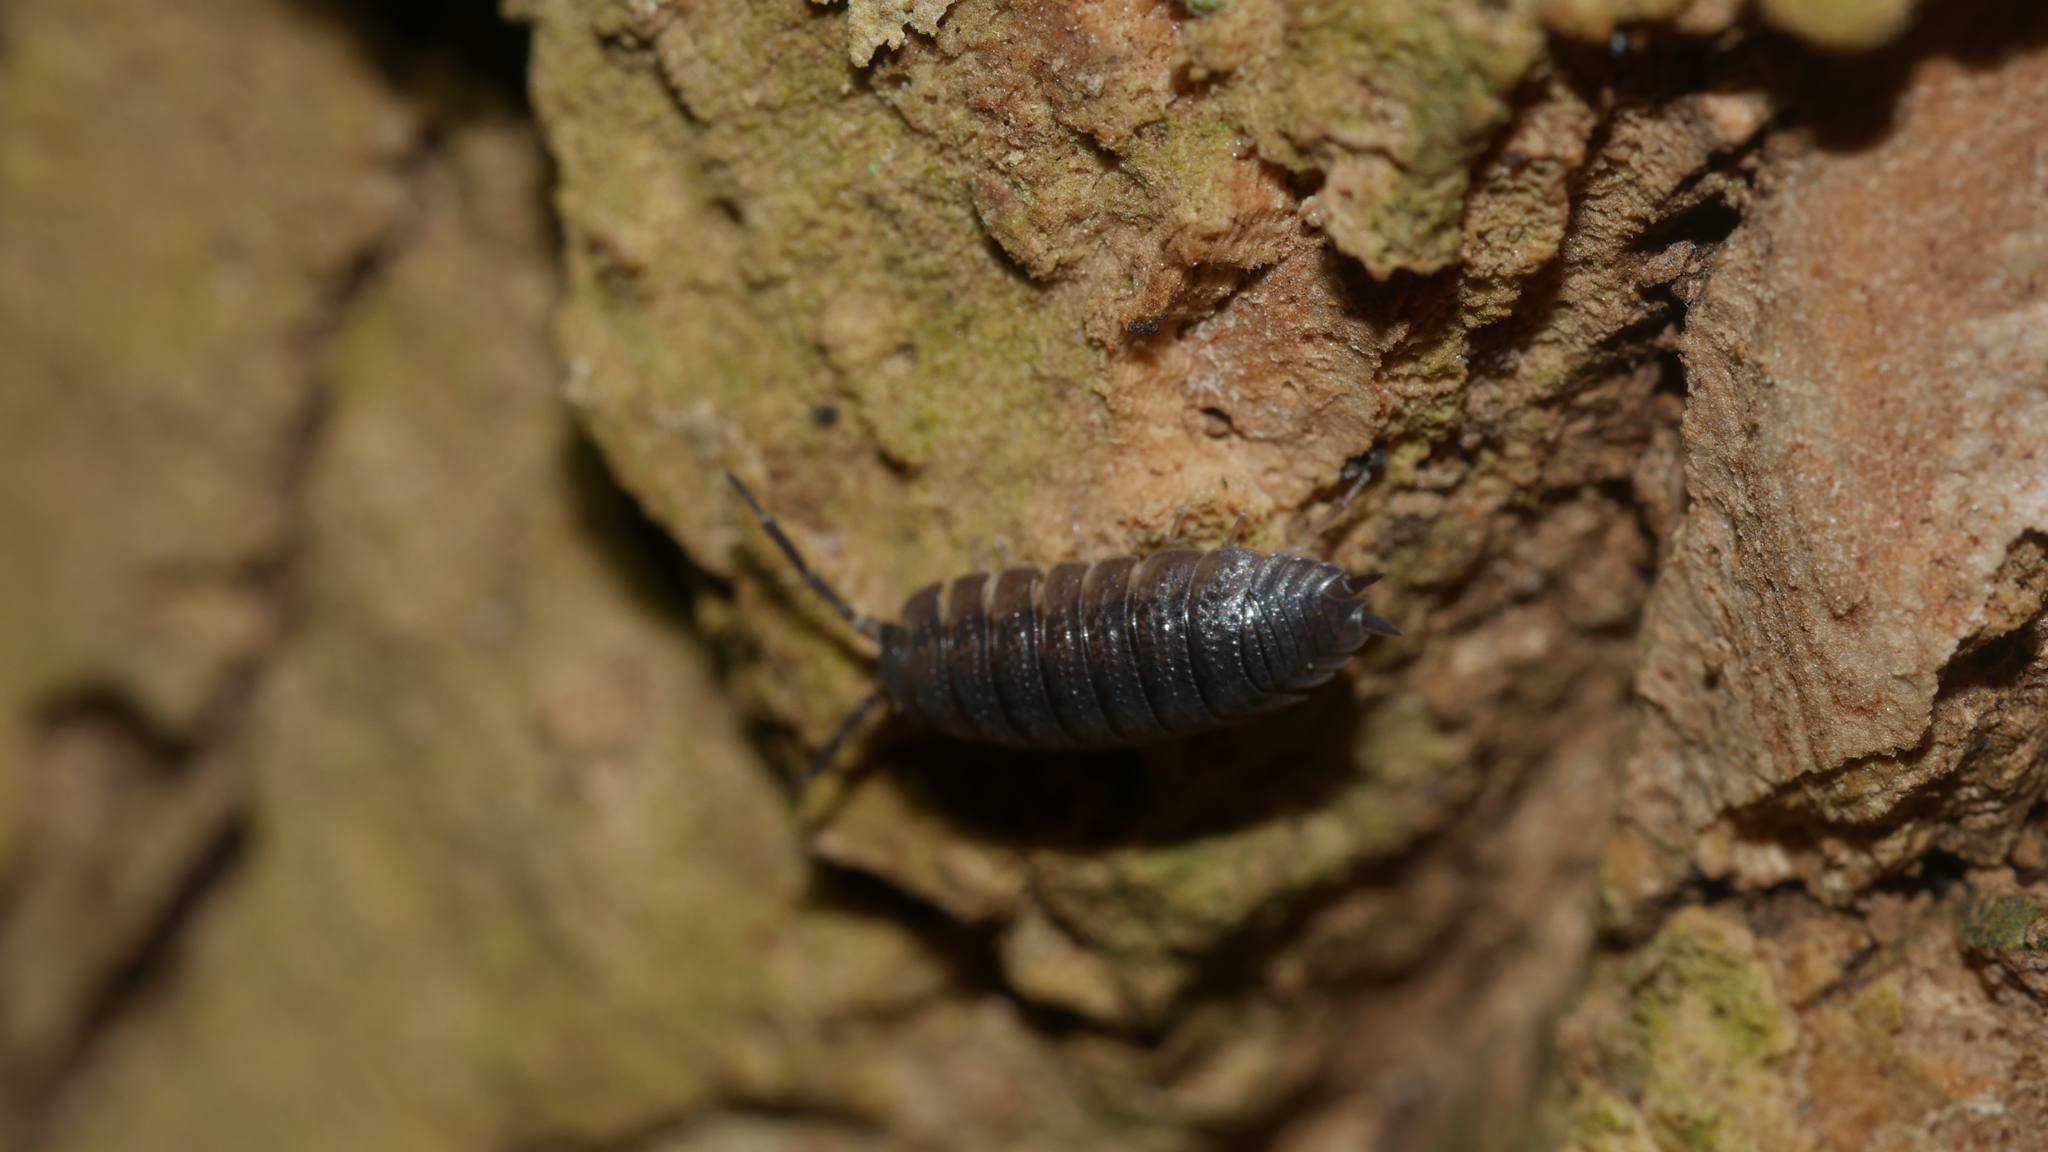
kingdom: Animalia
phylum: Arthropoda
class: Malacostraca
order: Isopoda
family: Porcellionidae
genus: Porcellio
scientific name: Porcellio scaber
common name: Common rough woodlouse
